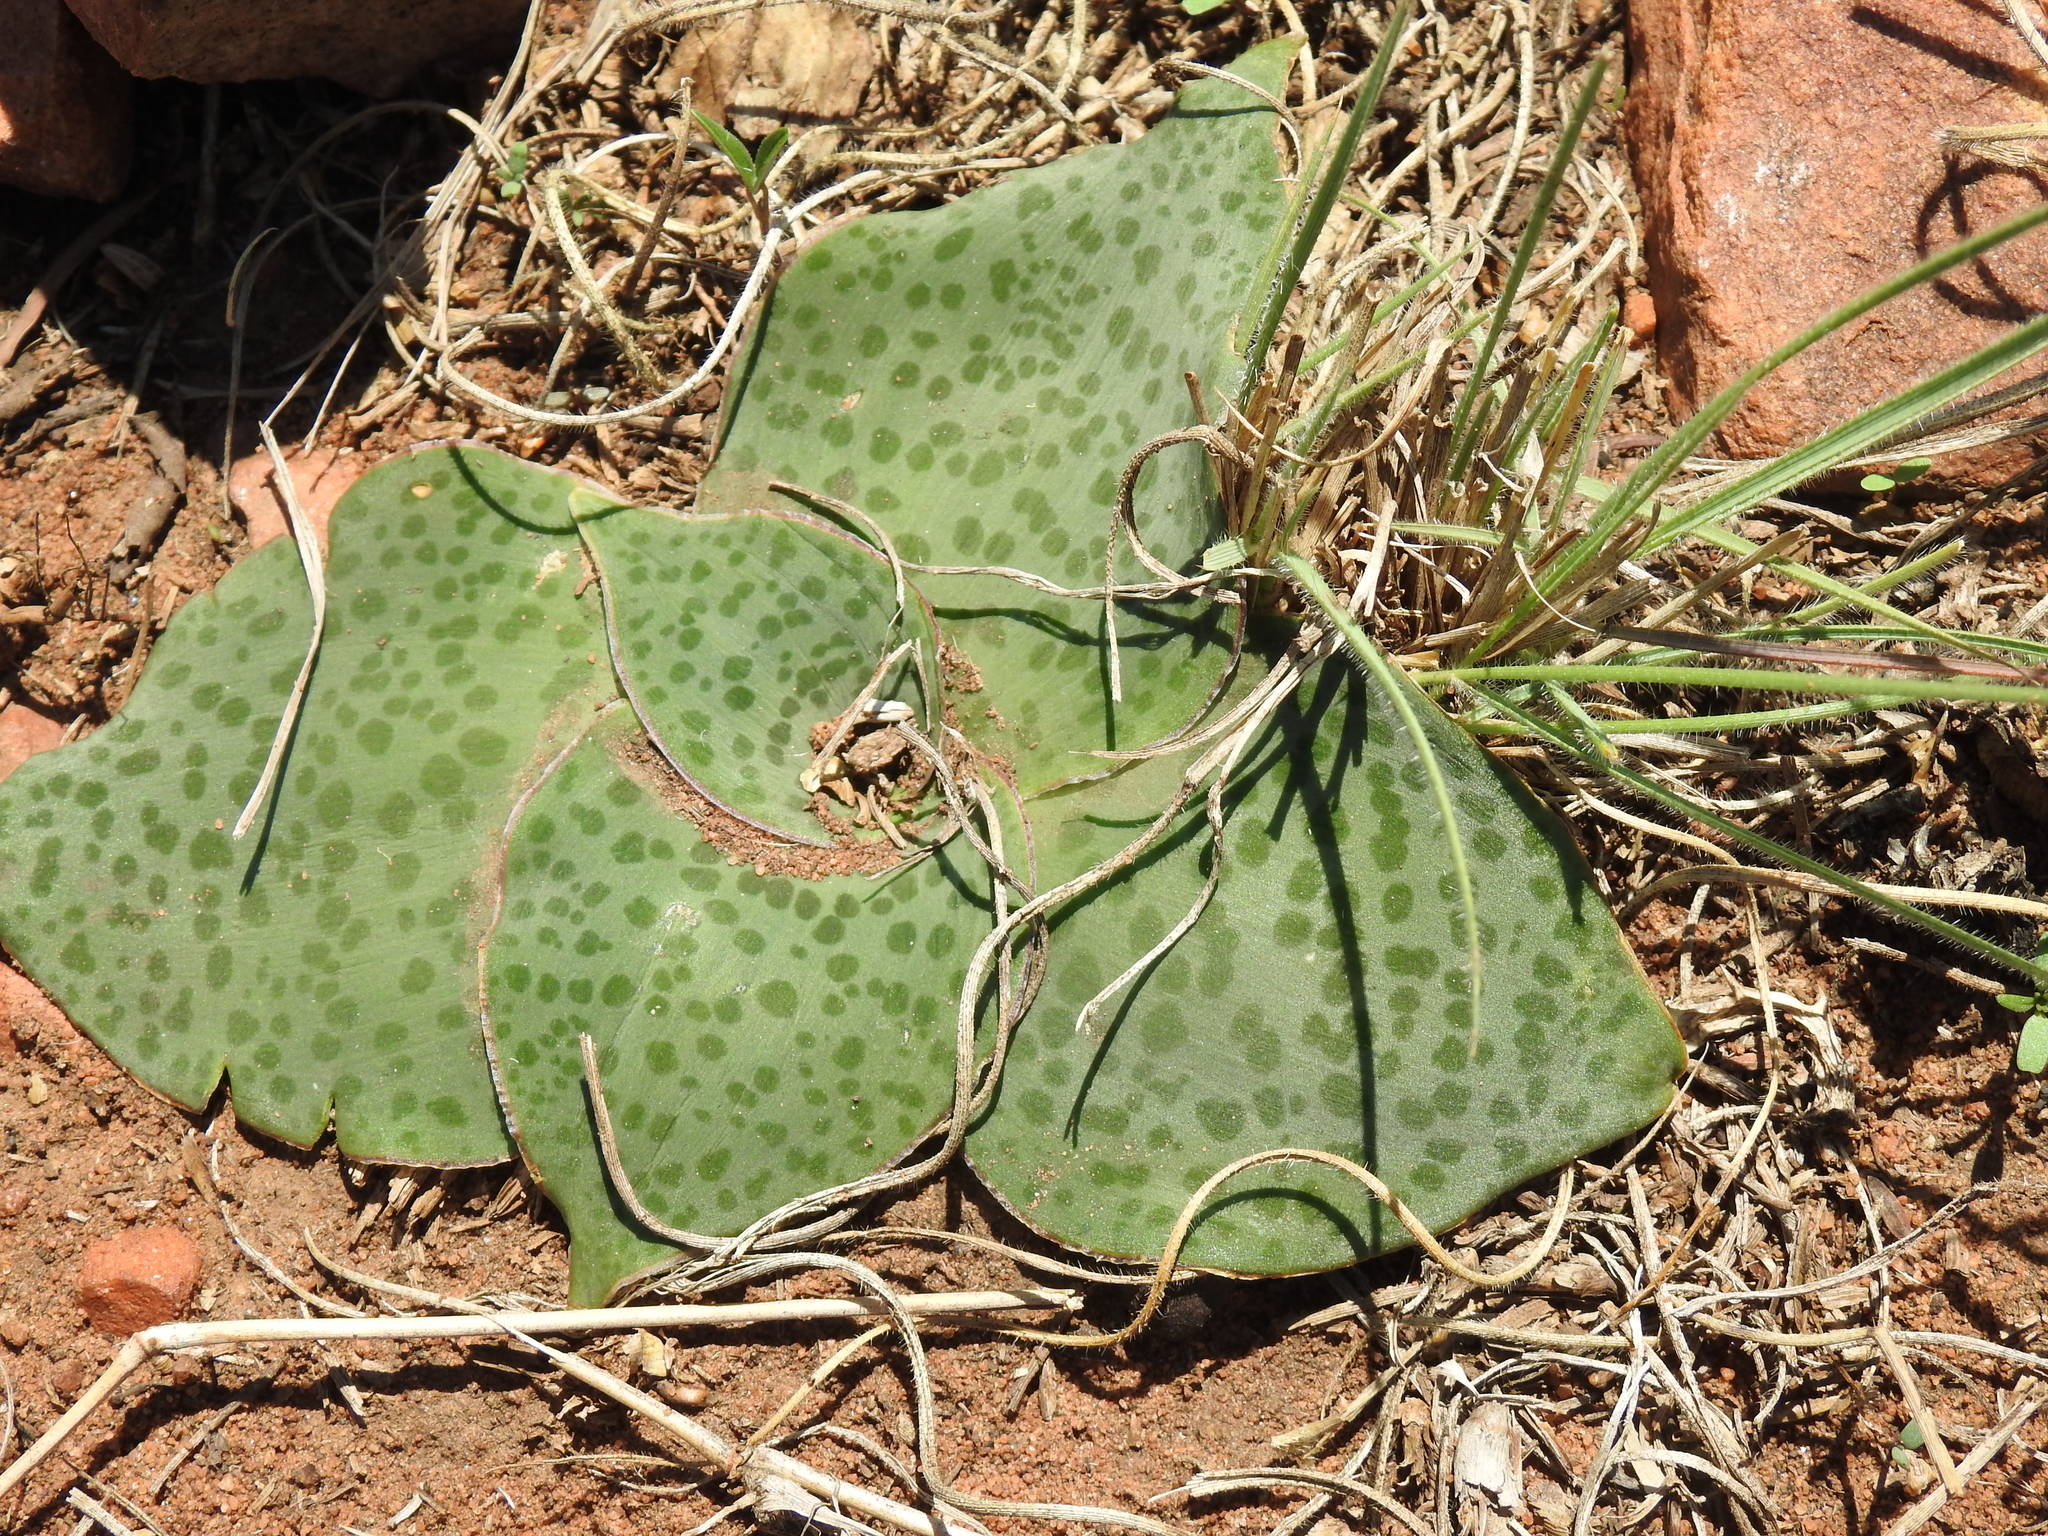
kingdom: Plantae
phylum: Tracheophyta
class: Liliopsida
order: Asparagales
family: Asparagaceae
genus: Ledebouria
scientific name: Ledebouria ovatifolia
